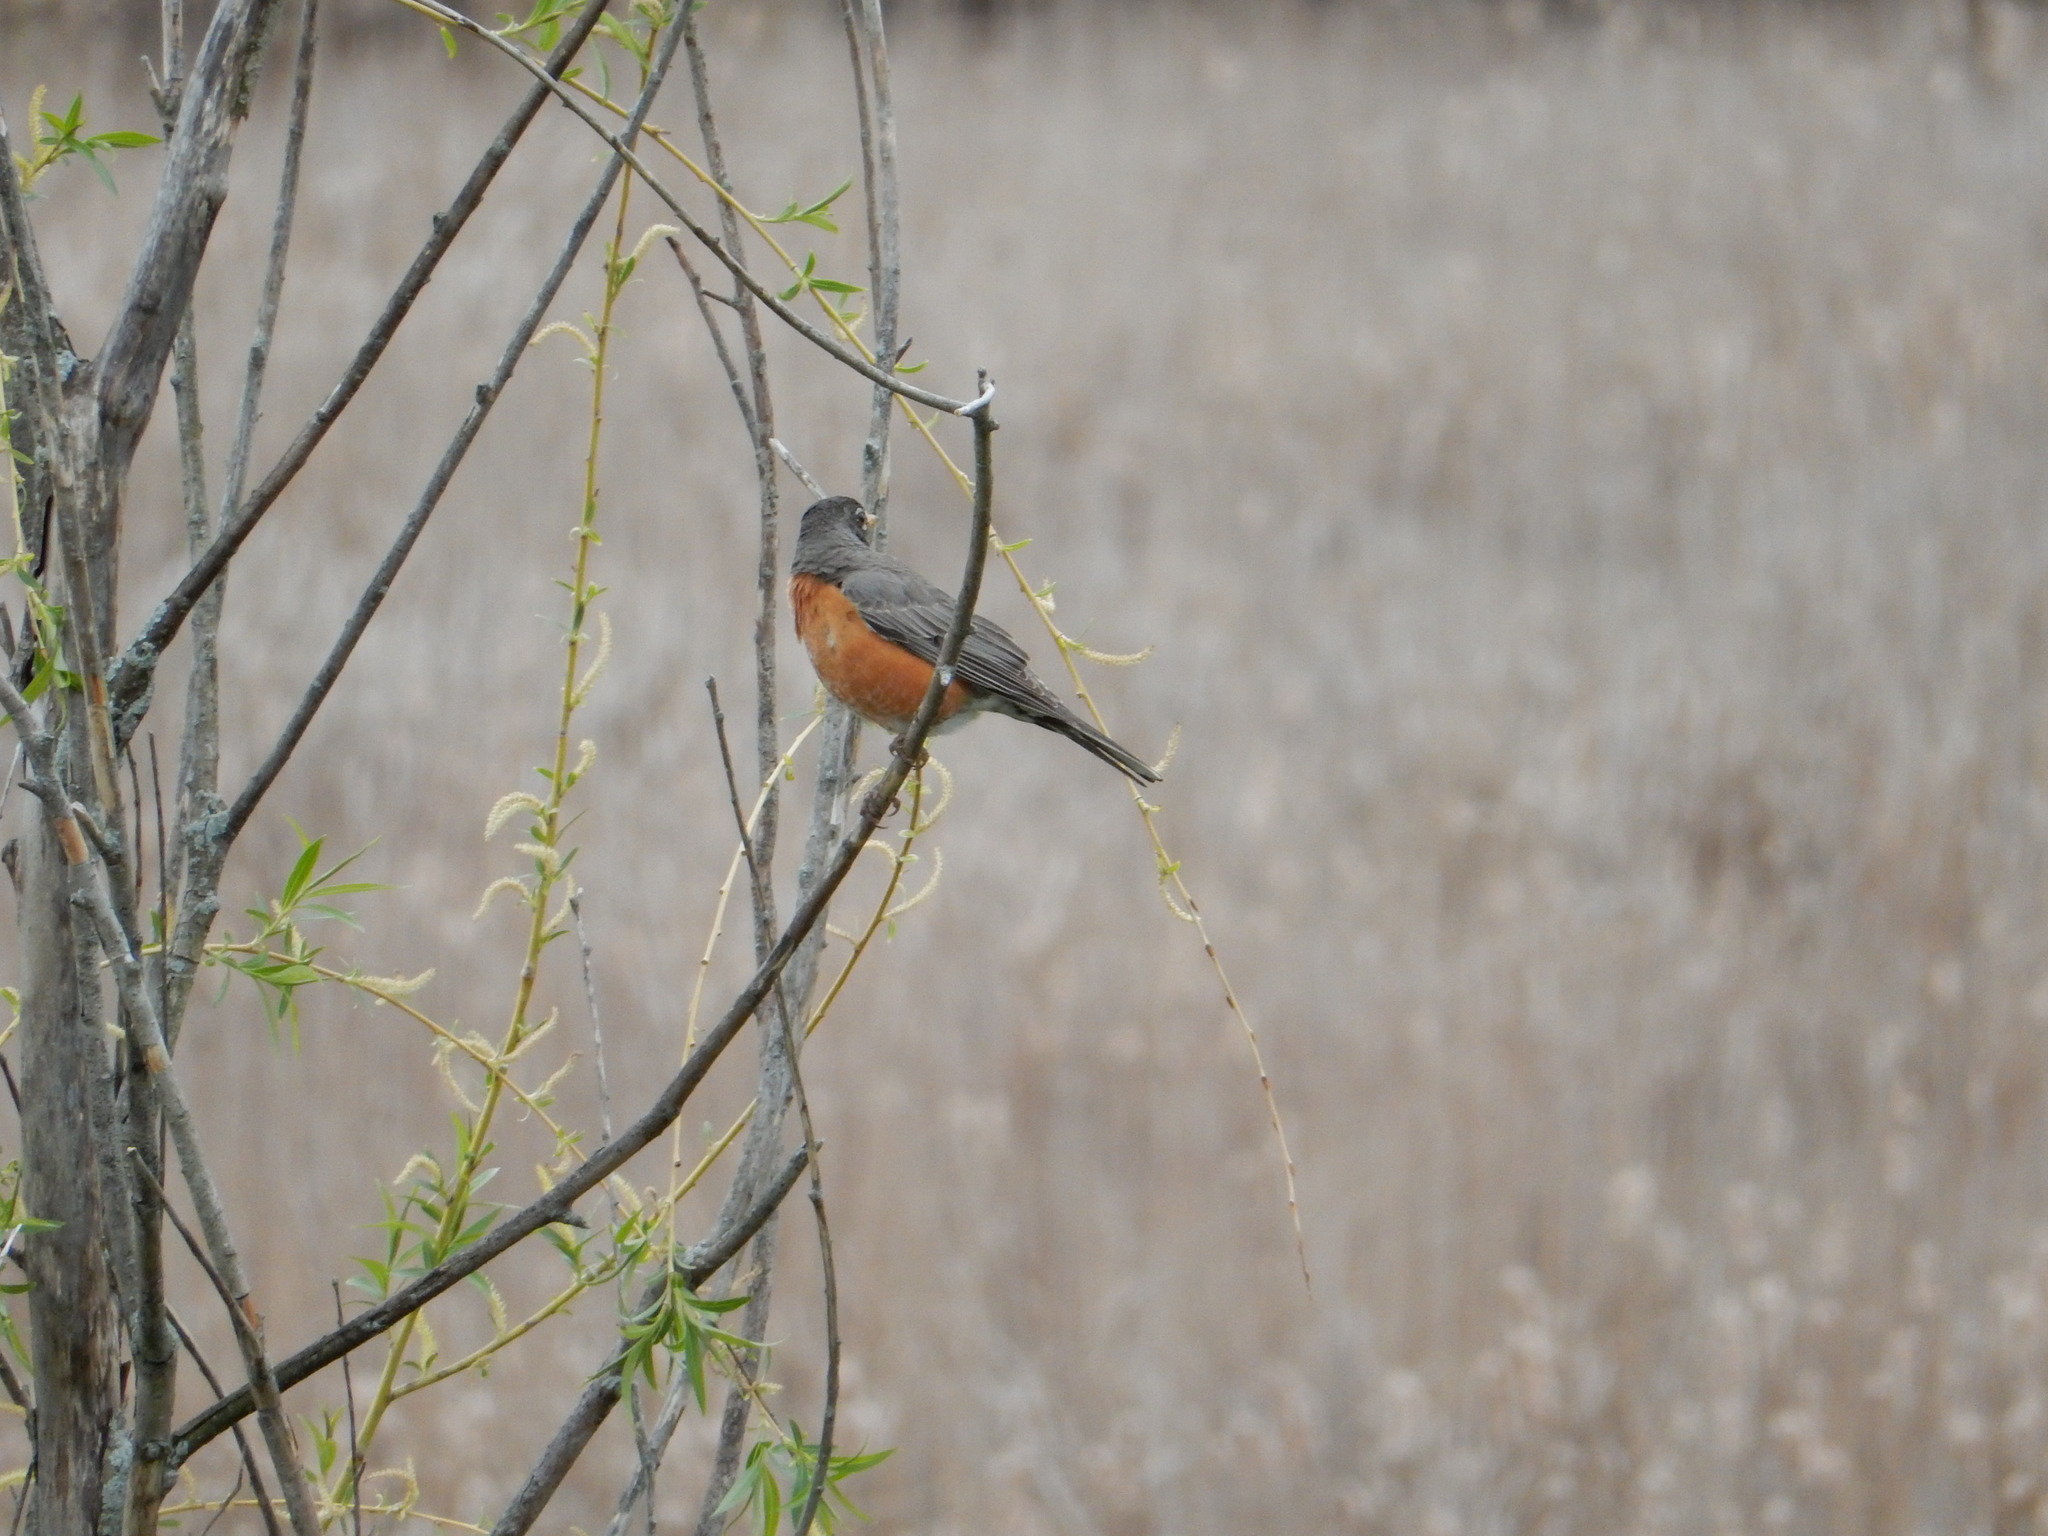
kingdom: Animalia
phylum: Chordata
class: Aves
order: Passeriformes
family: Turdidae
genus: Turdus
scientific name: Turdus migratorius
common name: American robin
